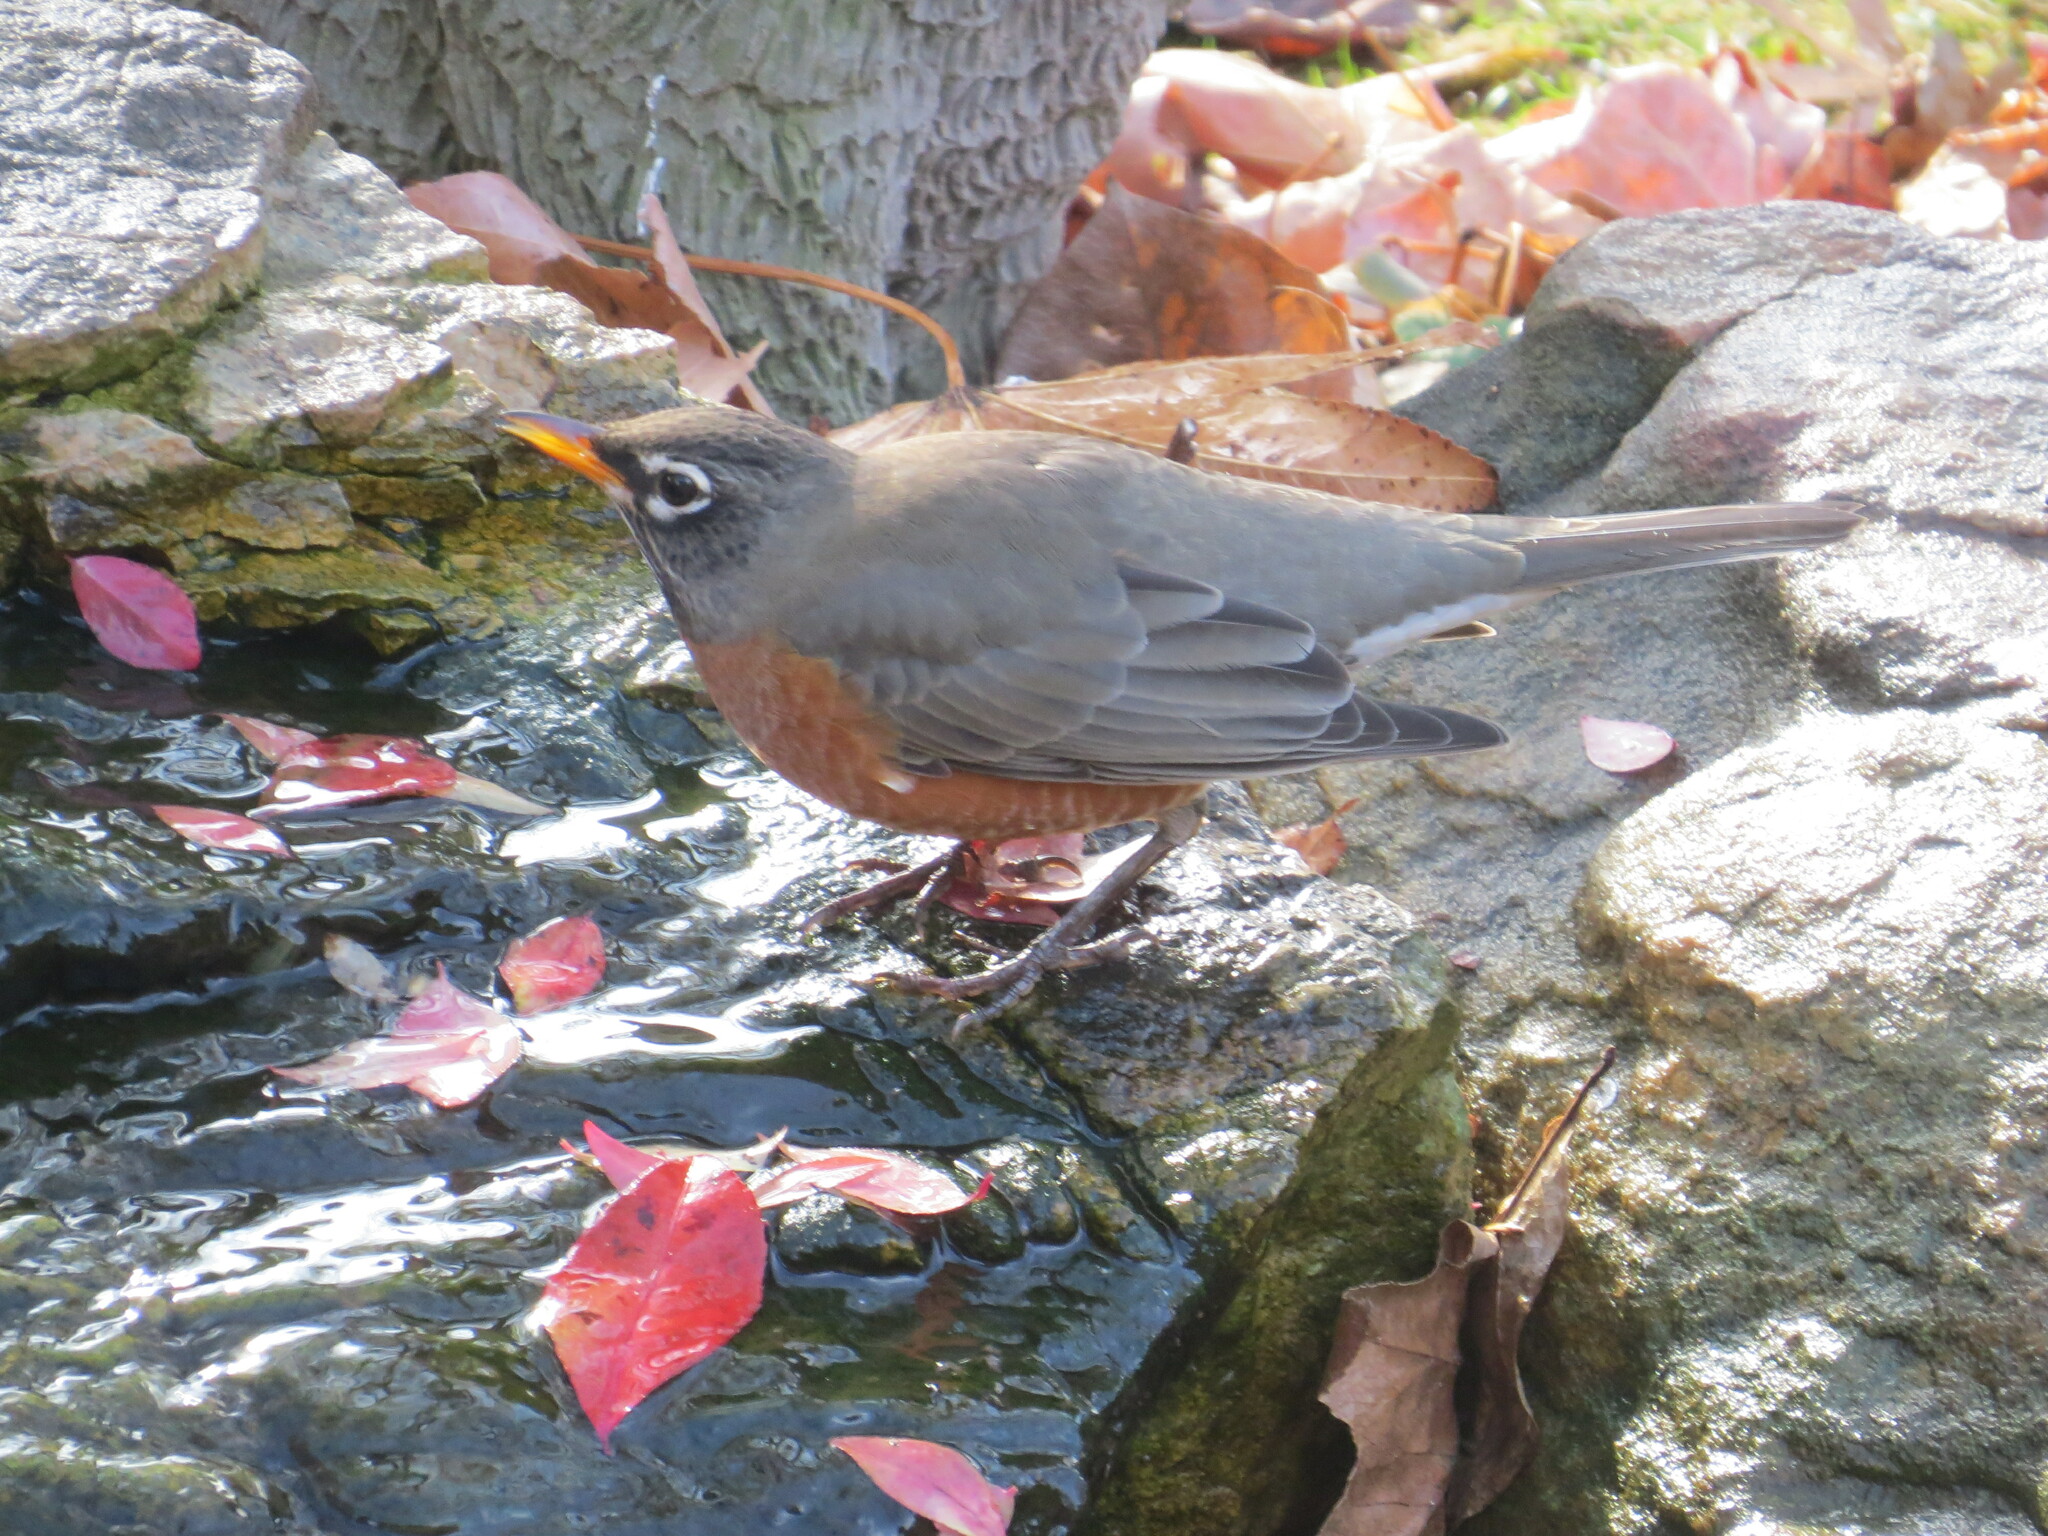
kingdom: Animalia
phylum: Chordata
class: Aves
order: Passeriformes
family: Turdidae
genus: Turdus
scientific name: Turdus migratorius
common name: American robin
